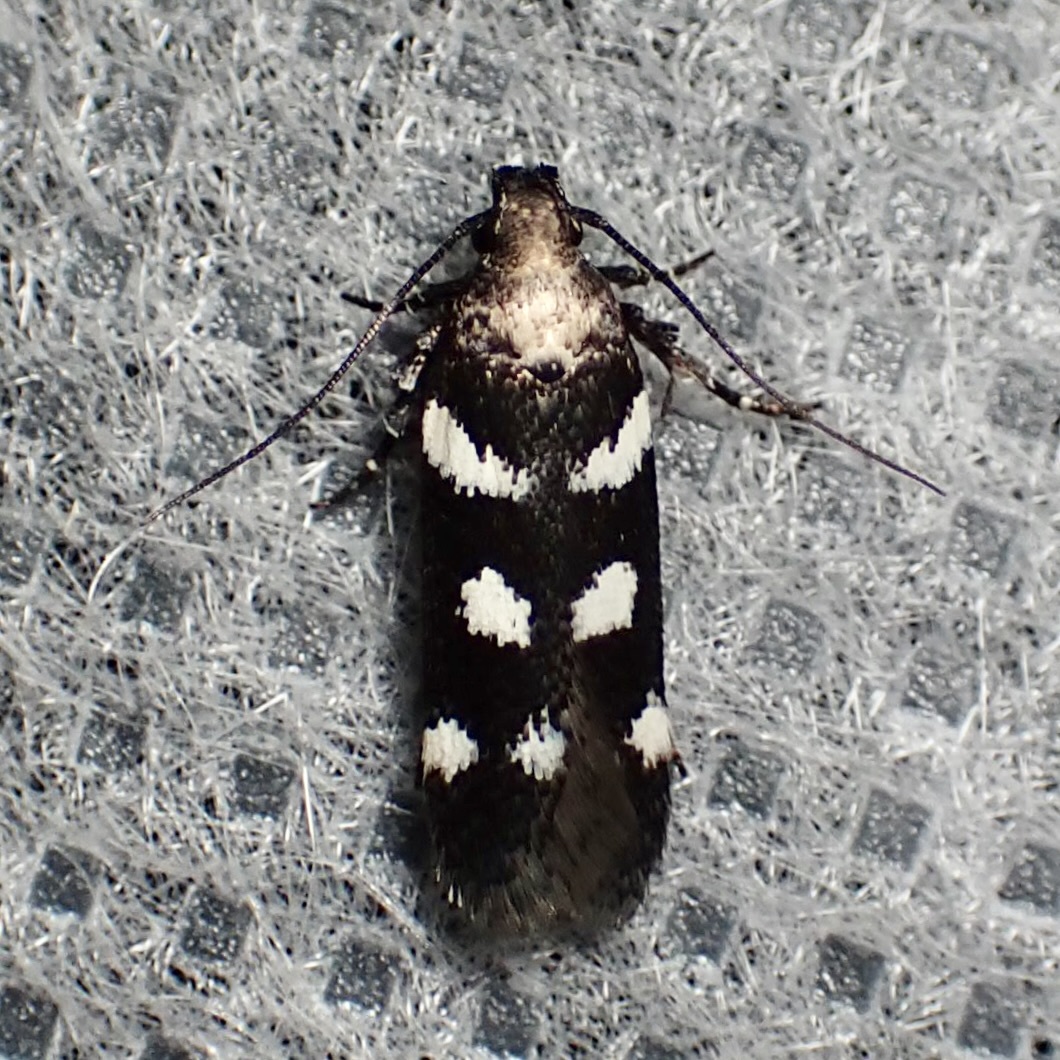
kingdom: Animalia
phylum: Arthropoda
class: Insecta
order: Lepidoptera
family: Gelechiidae
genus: Filatima
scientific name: Filatima arizonella
